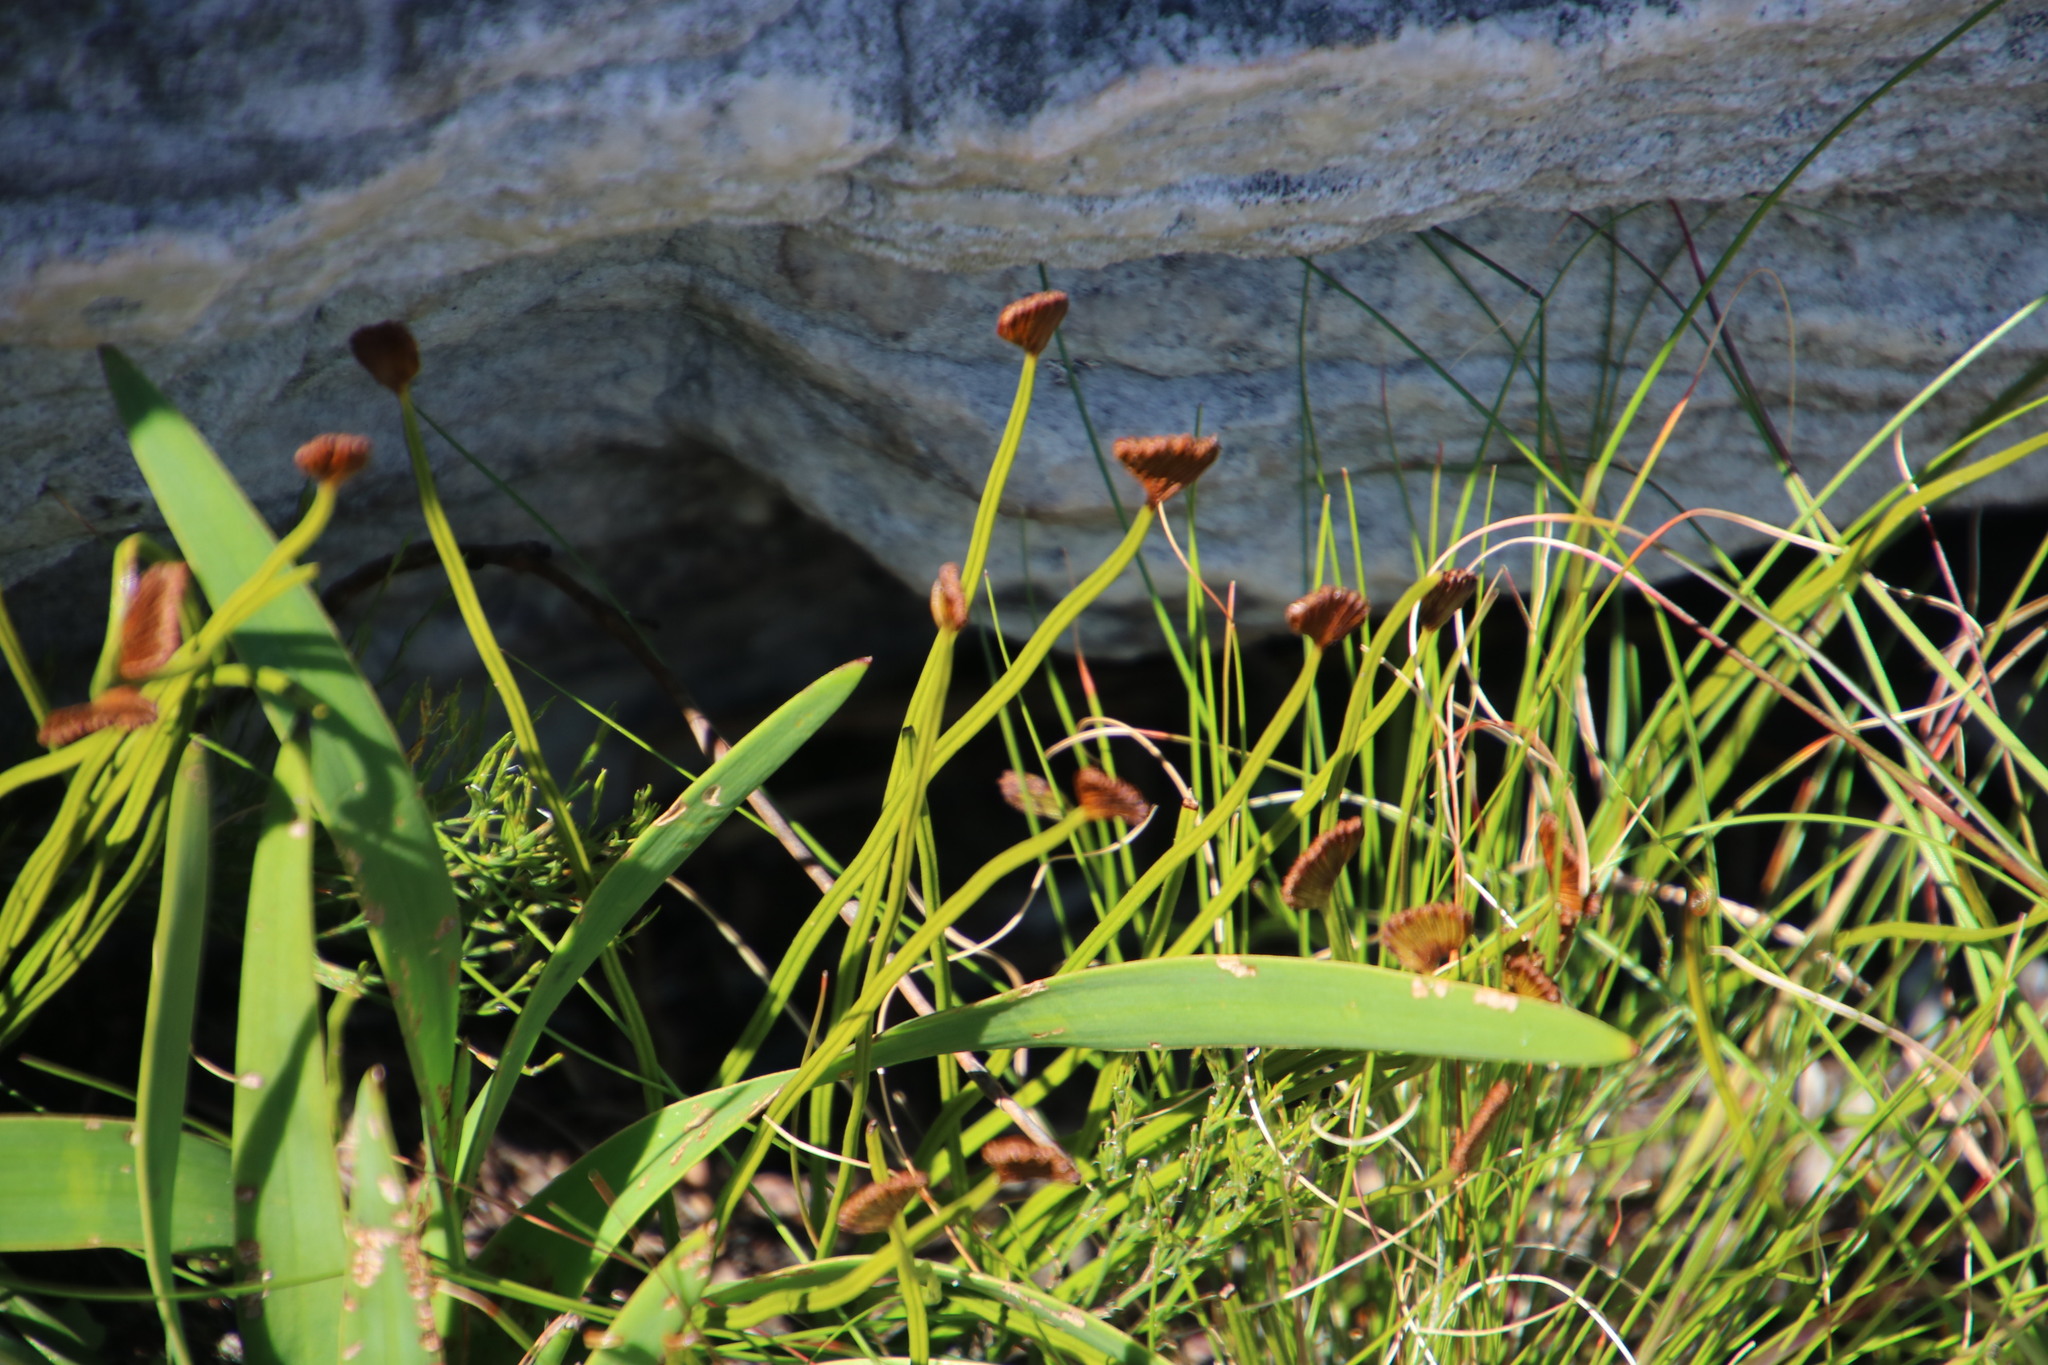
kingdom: Plantae
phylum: Tracheophyta
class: Polypodiopsida
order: Schizaeales
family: Schizaeaceae
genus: Schizaea
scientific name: Schizaea pectinata
